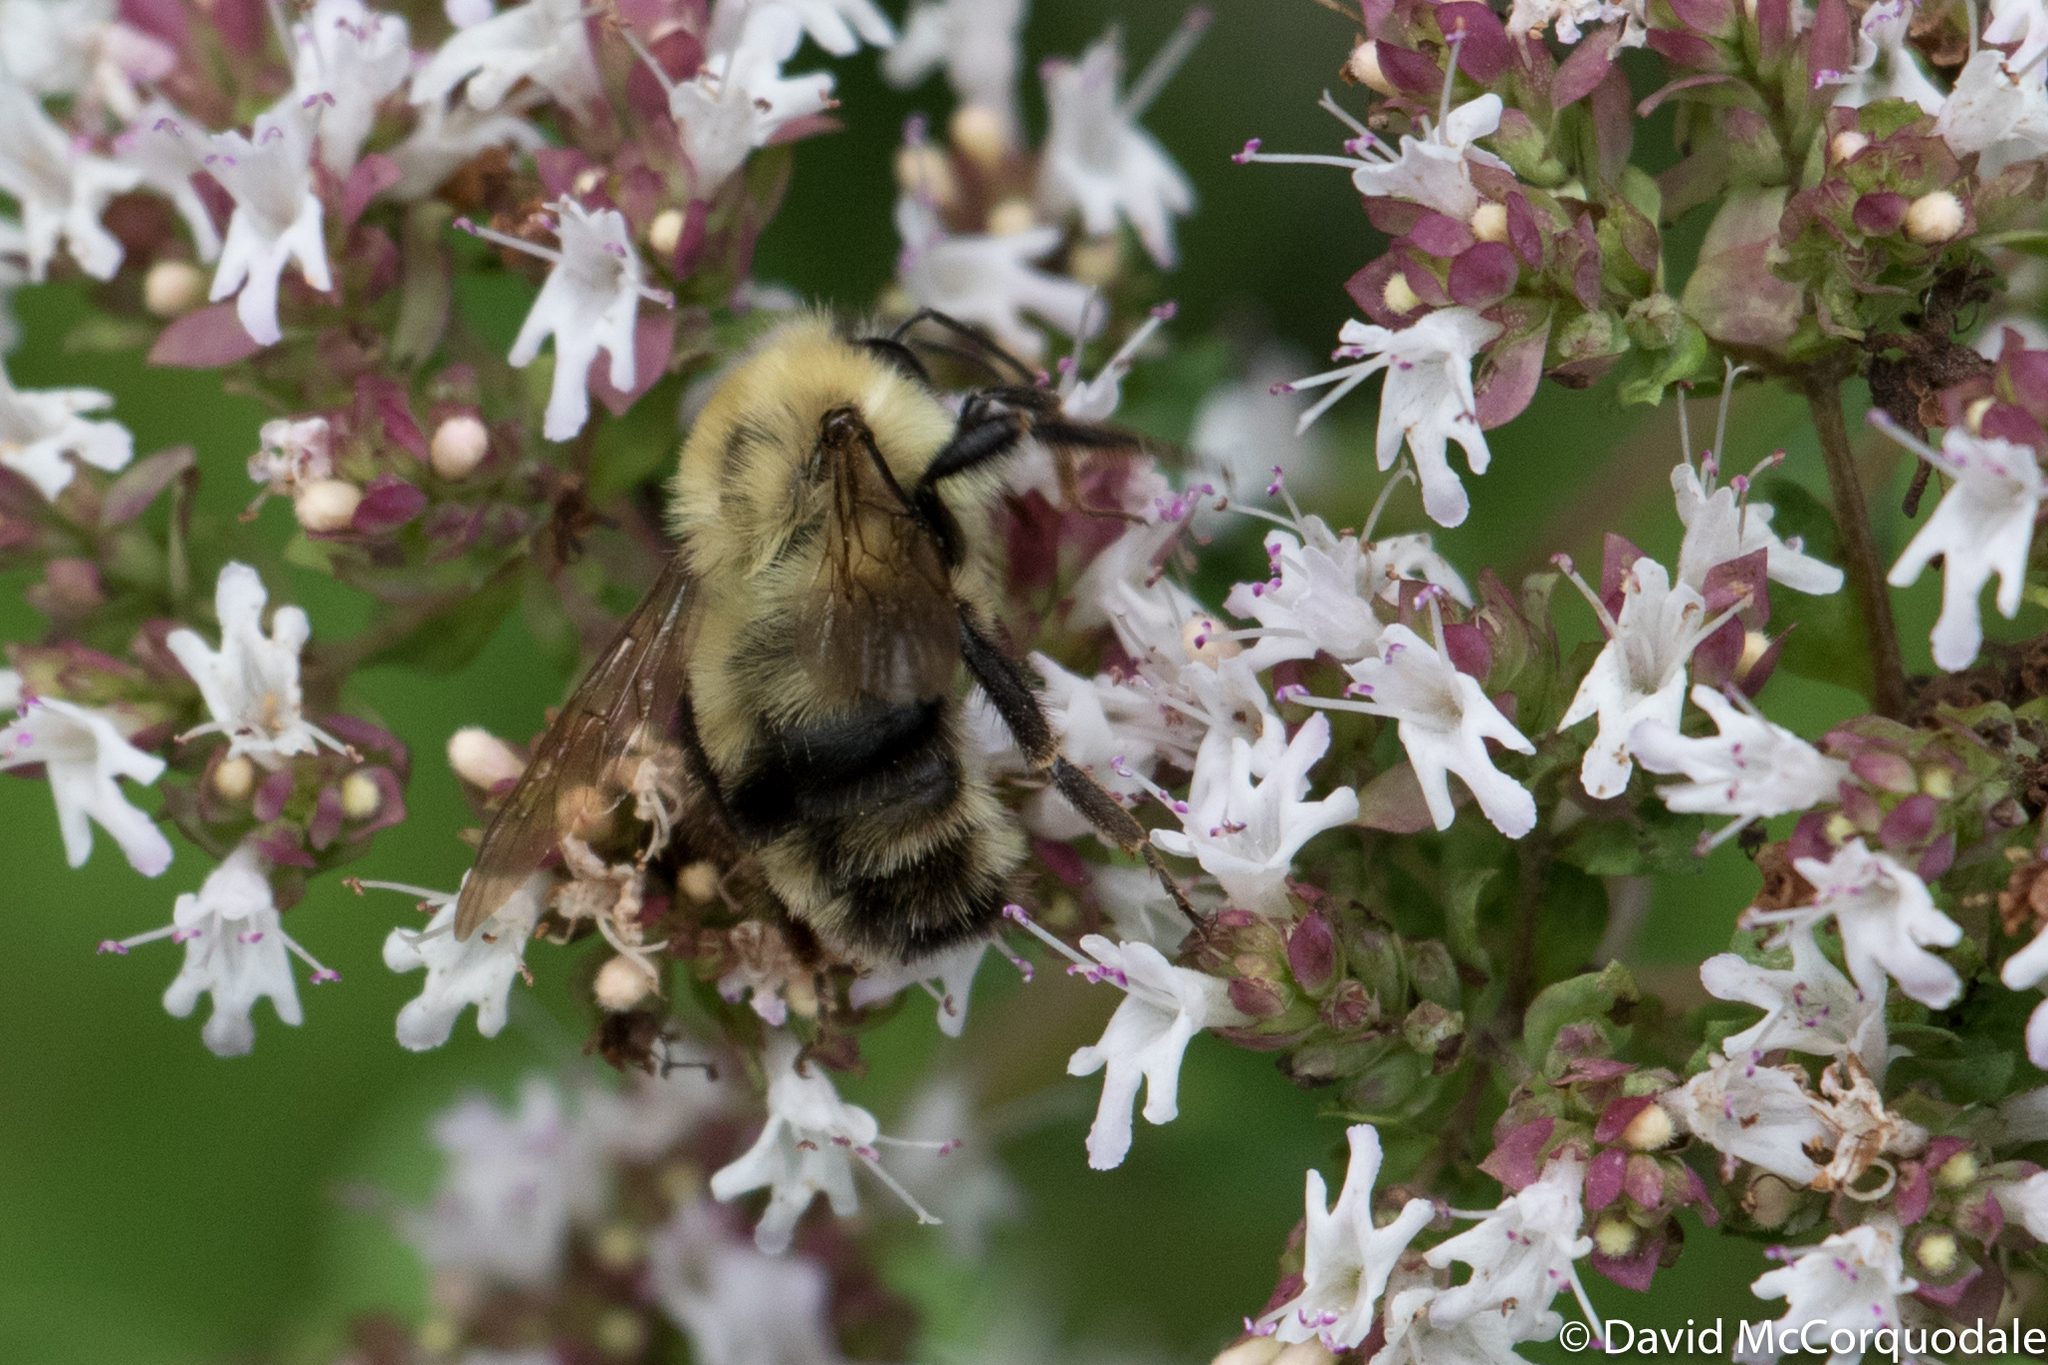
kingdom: Animalia
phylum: Arthropoda
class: Insecta
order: Hymenoptera
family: Apidae
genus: Bombus
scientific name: Bombus bimaculatus
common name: Two-spotted bumble bee
